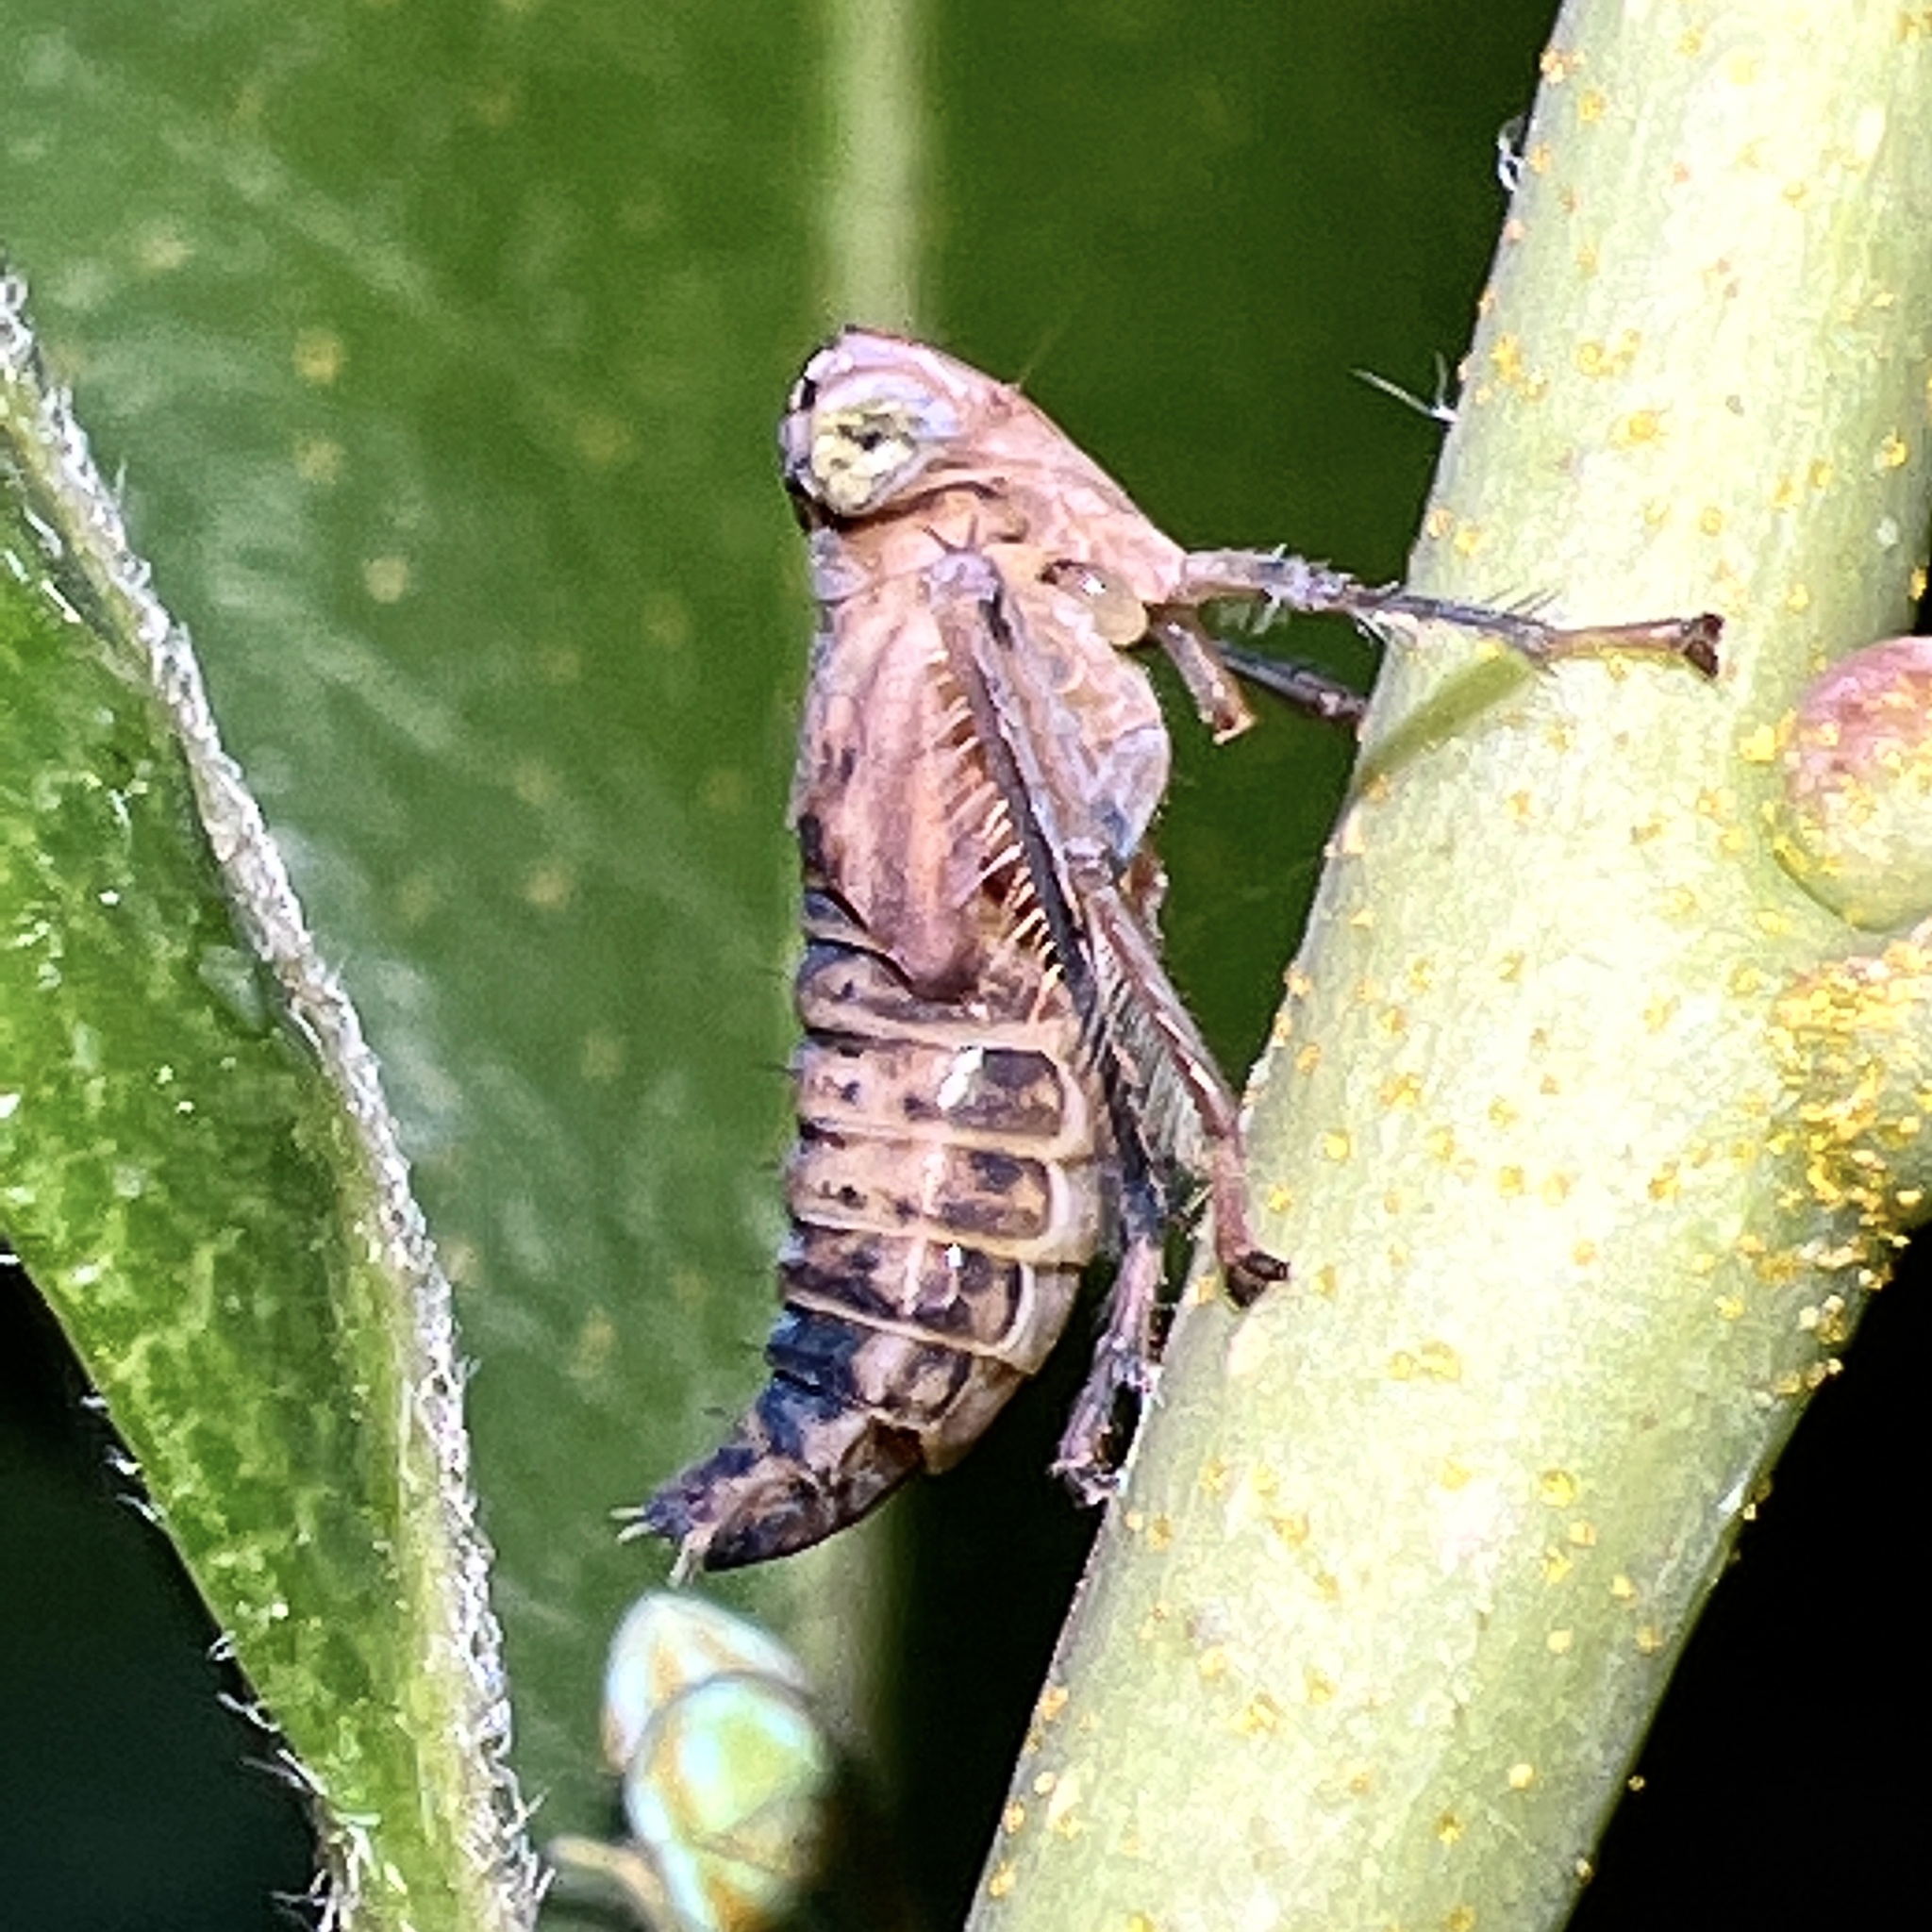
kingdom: Animalia
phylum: Arthropoda
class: Insecta
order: Hemiptera
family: Cicadellidae
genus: Jikradia
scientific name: Jikradia olitoria
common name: Coppery leafhopper
